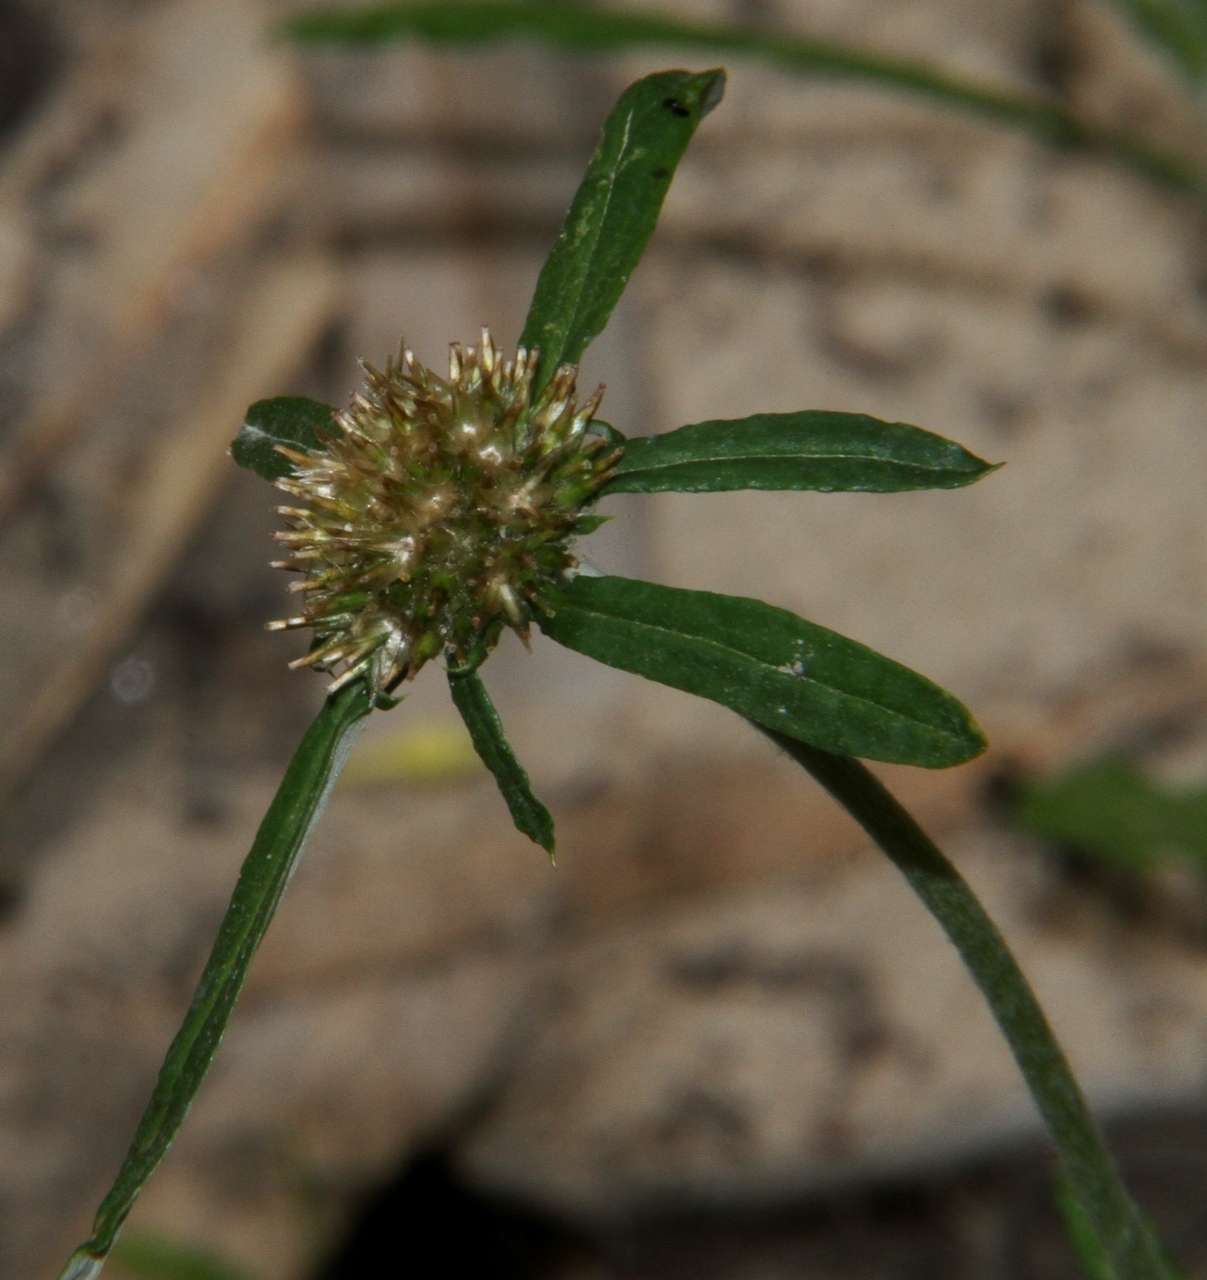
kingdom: Plantae
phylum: Tracheophyta
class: Magnoliopsida
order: Asterales
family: Asteraceae
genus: Euchiton
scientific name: Euchiton sphaericus
